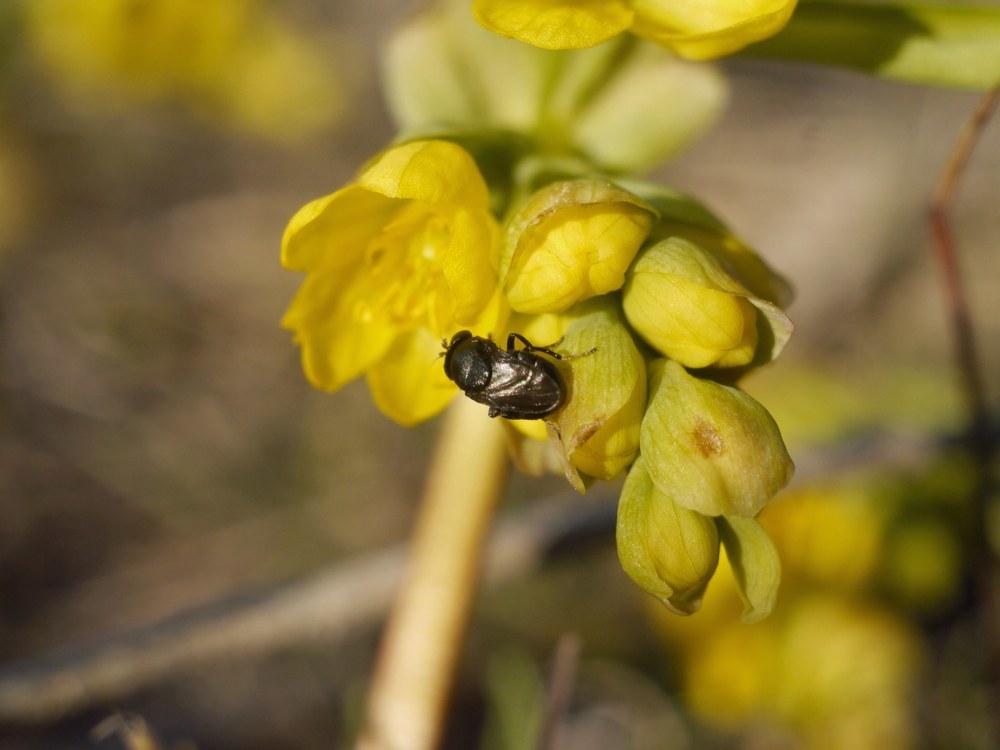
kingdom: Animalia
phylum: Arthropoda
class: Insecta
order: Diptera
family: Ephydridae
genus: Discomyza
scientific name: Discomyza incurva
